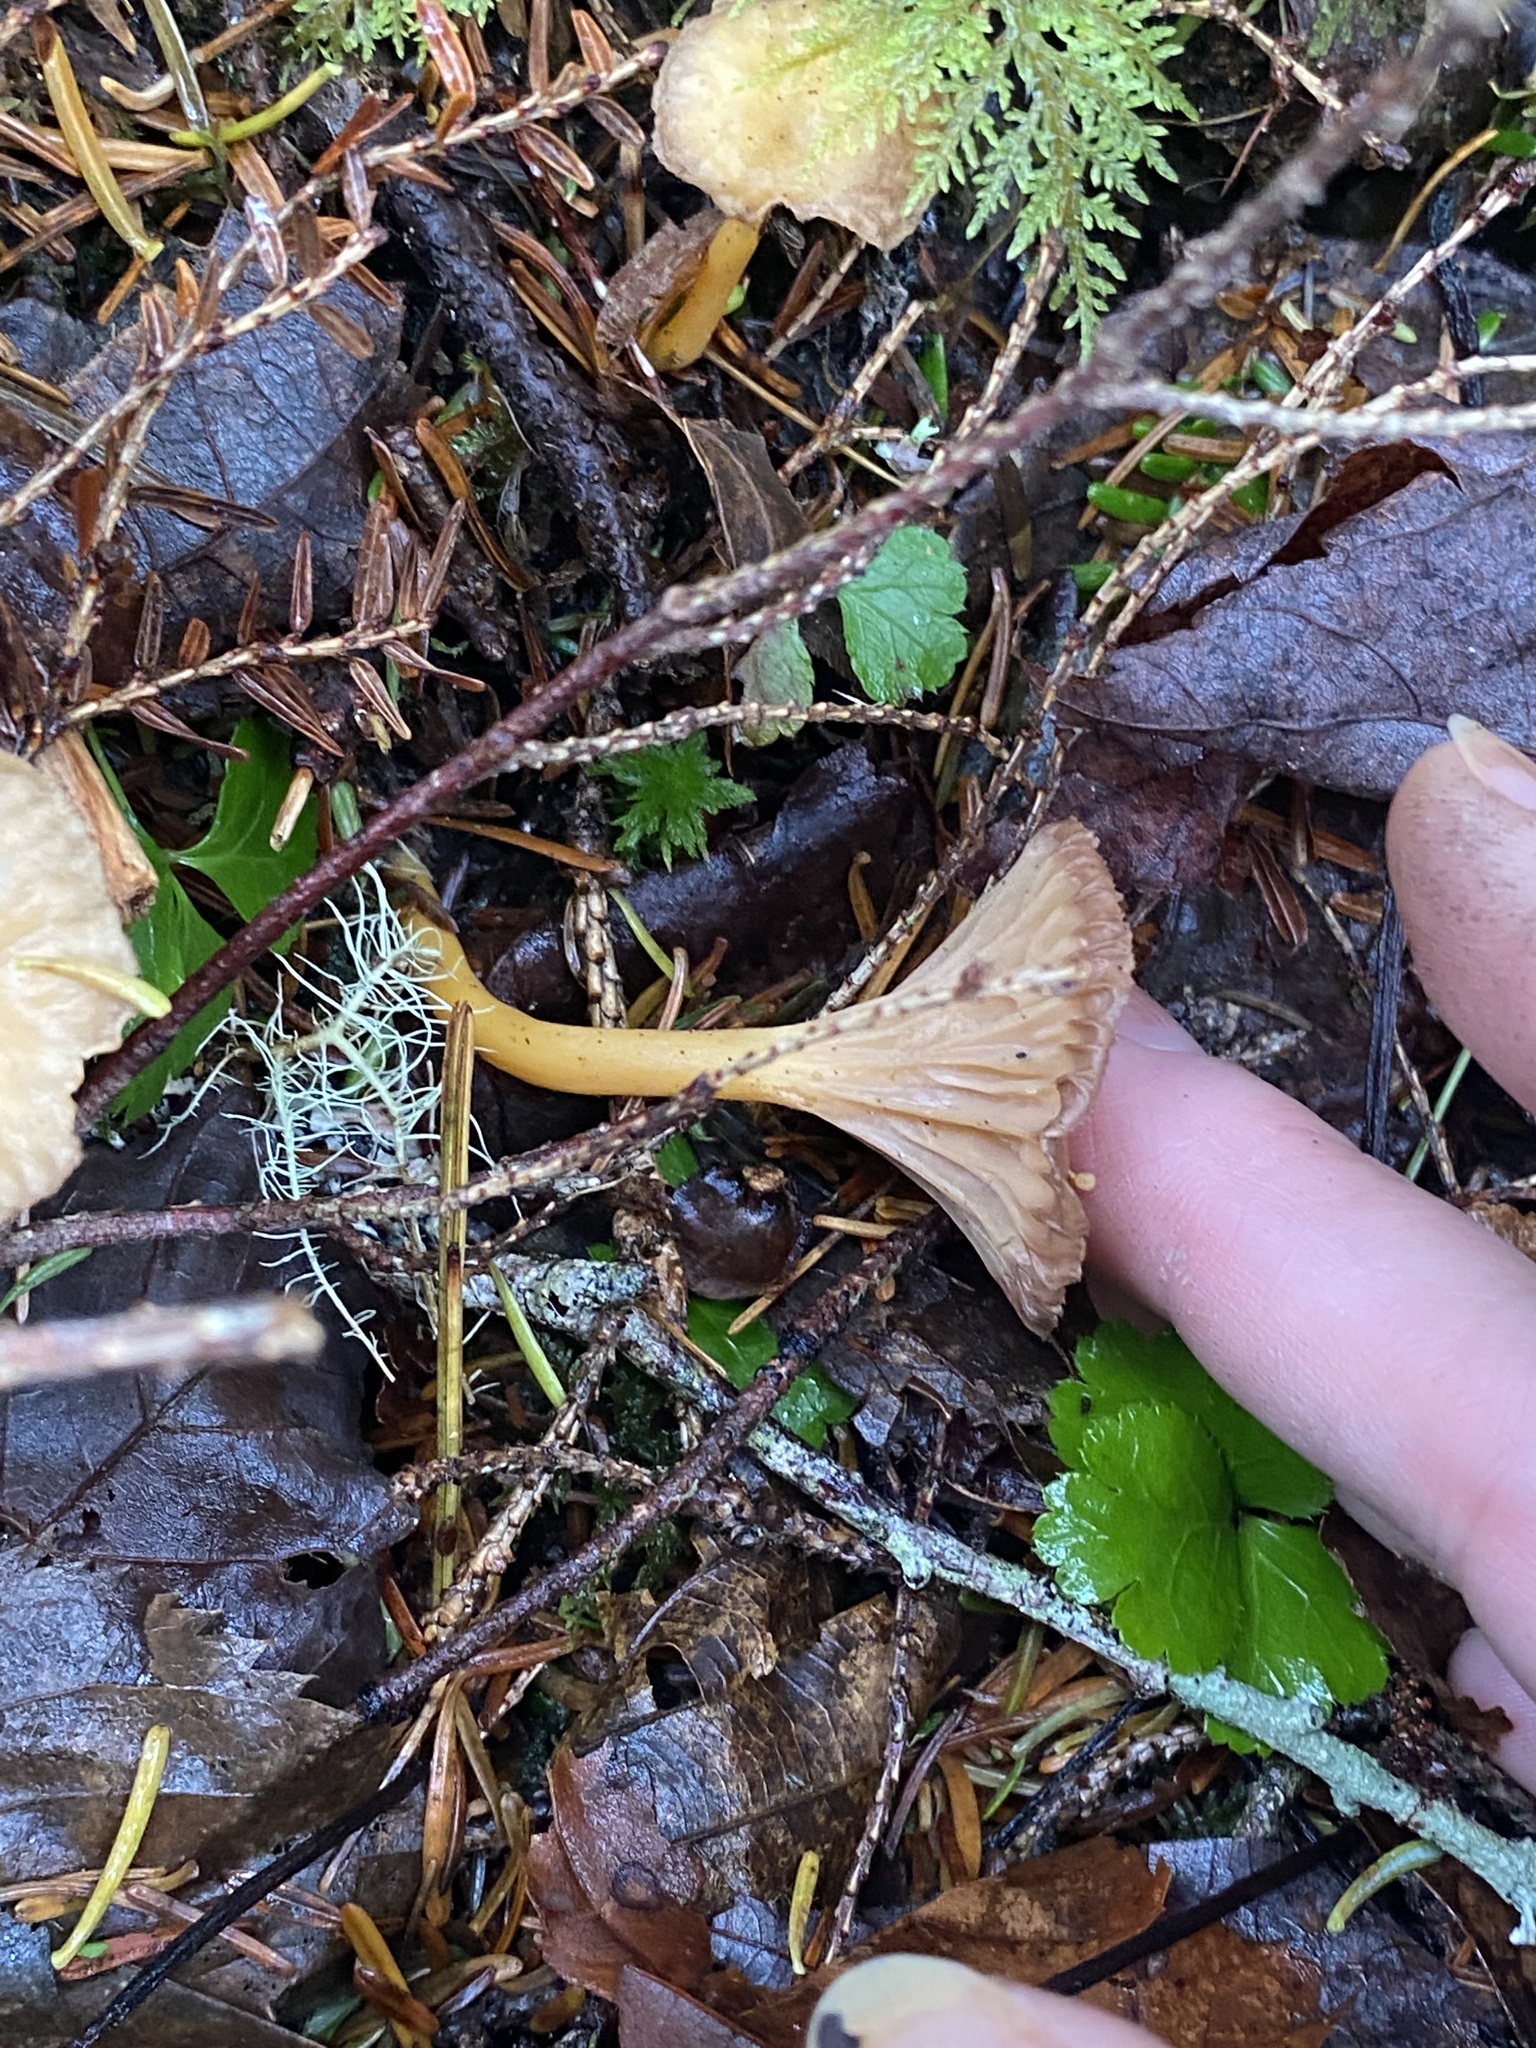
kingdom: Fungi
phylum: Basidiomycota
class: Agaricomycetes
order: Cantharellales
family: Hydnaceae
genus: Craterellus
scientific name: Craterellus tubaeformis
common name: Yellowfoot
